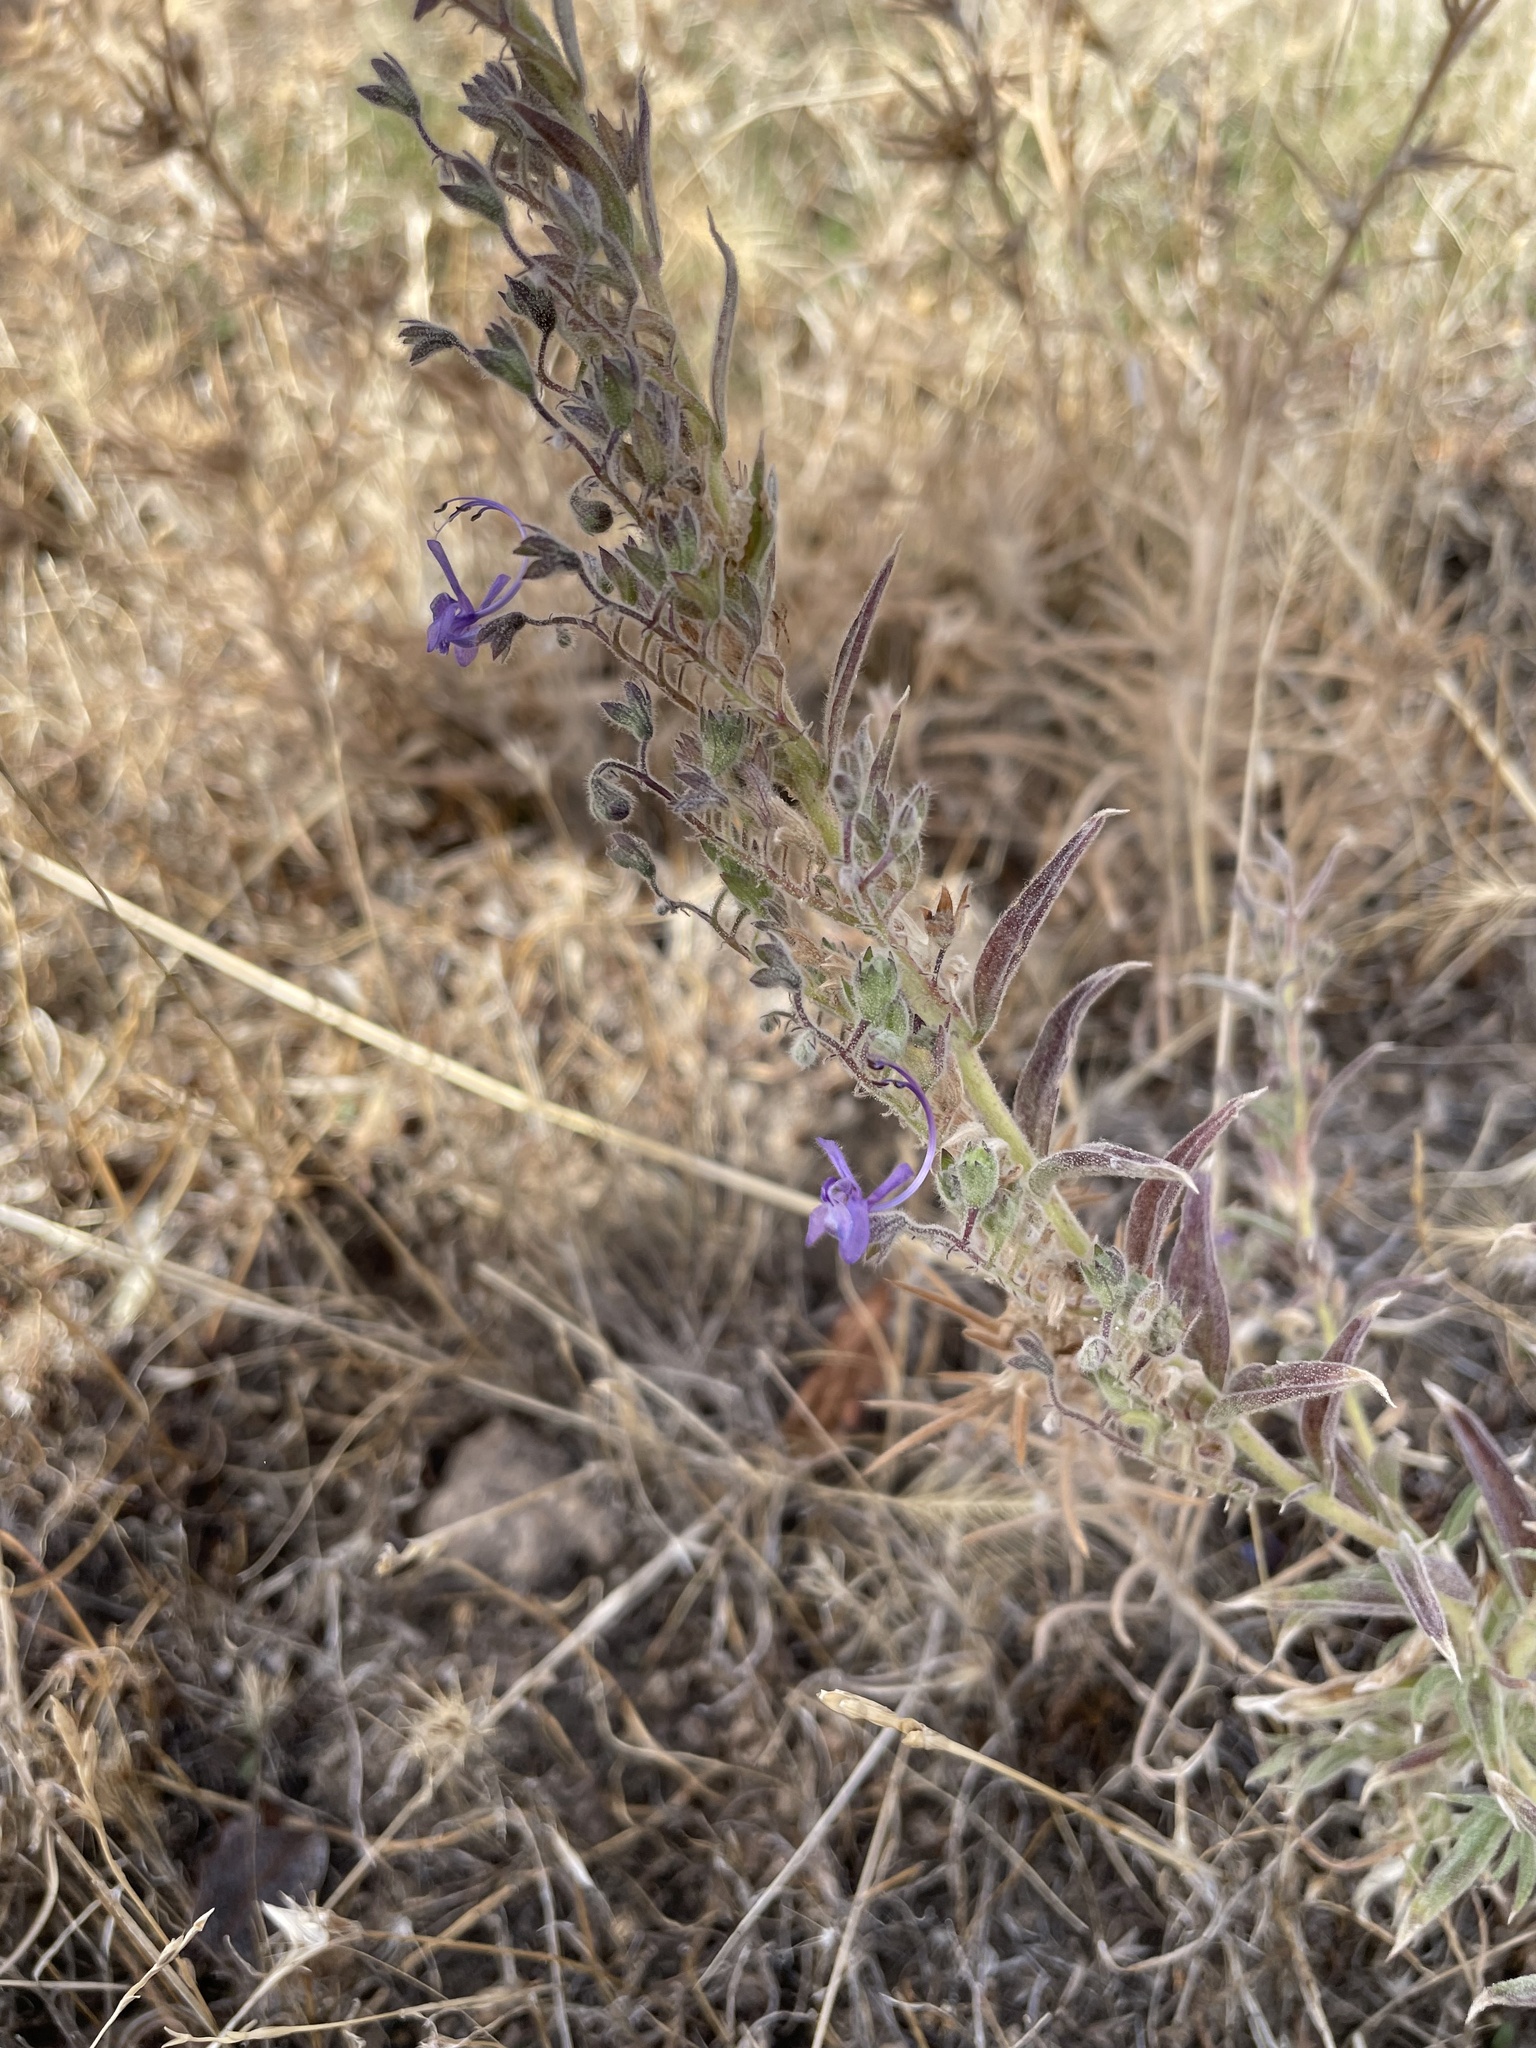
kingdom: Plantae
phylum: Tracheophyta
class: Magnoliopsida
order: Lamiales
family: Lamiaceae
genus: Trichostema
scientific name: Trichostema lanceolatum
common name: Vinegar-weed
